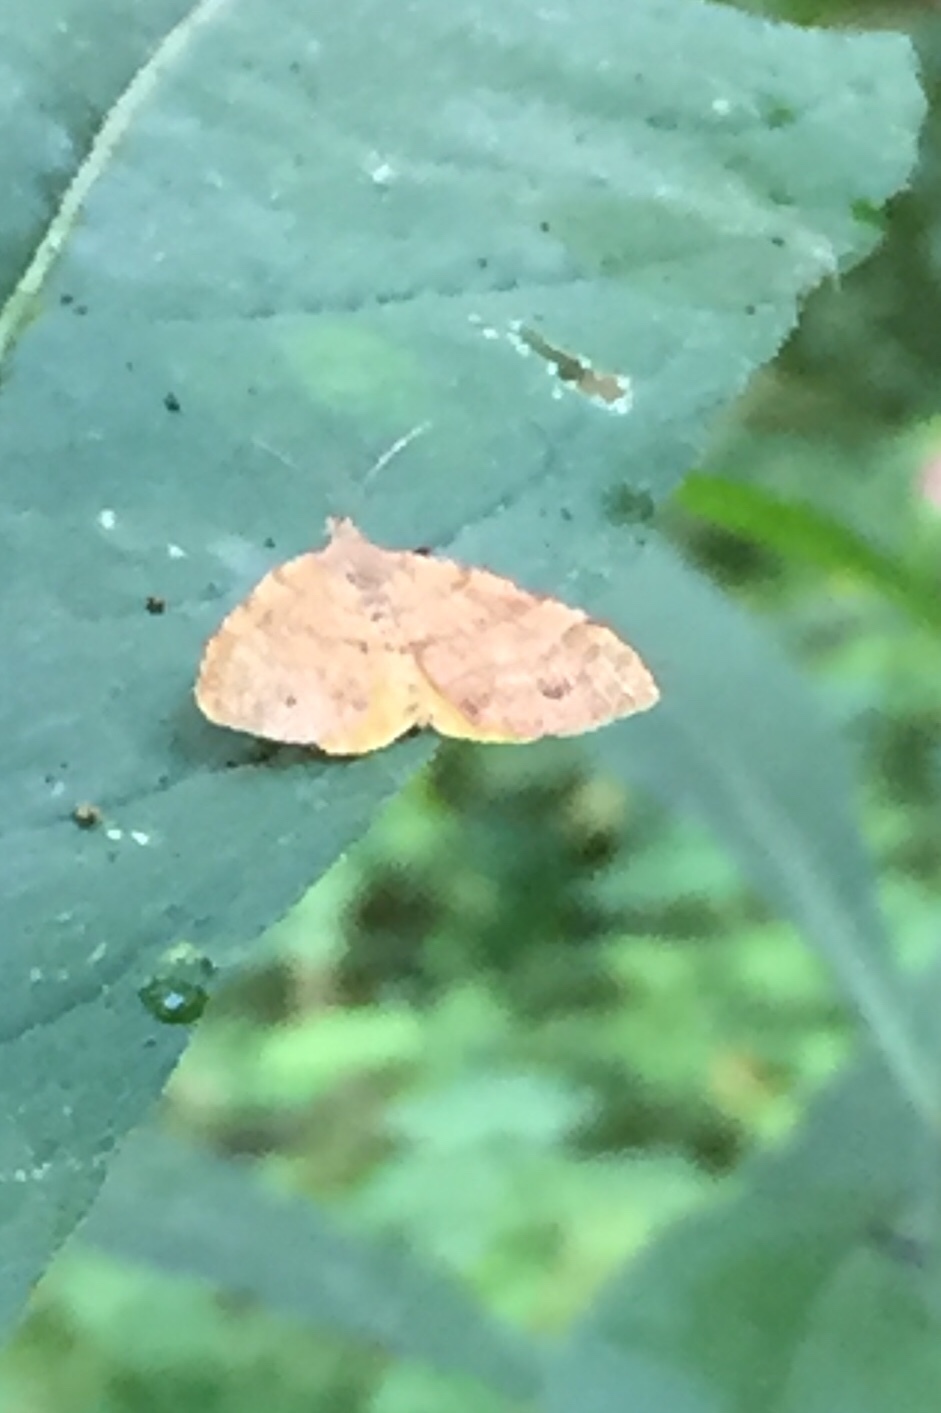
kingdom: Animalia
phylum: Arthropoda
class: Insecta
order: Lepidoptera
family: Geometridae
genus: Mellilla
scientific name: Mellilla xanthometata
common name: Orange wing moth
